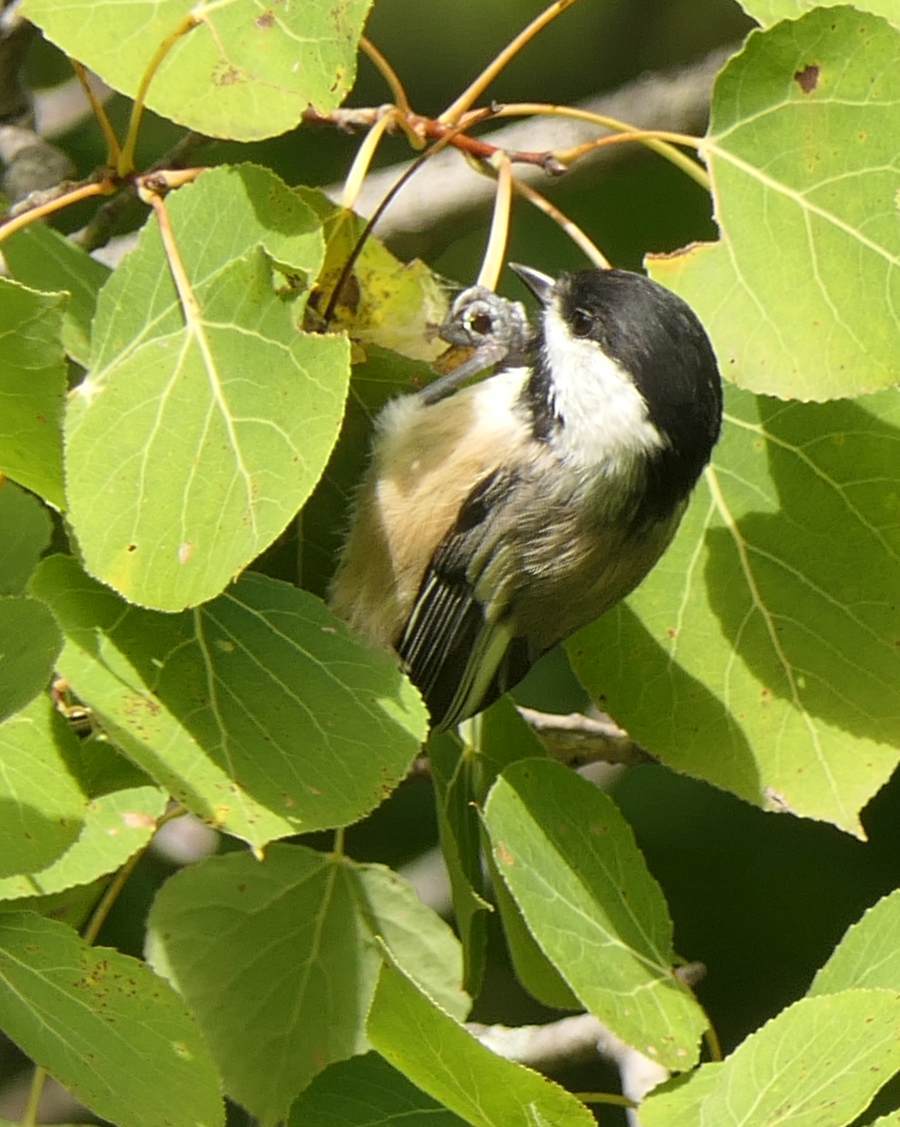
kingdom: Animalia
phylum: Chordata
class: Aves
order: Passeriformes
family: Paridae
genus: Poecile
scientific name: Poecile atricapillus
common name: Black-capped chickadee
